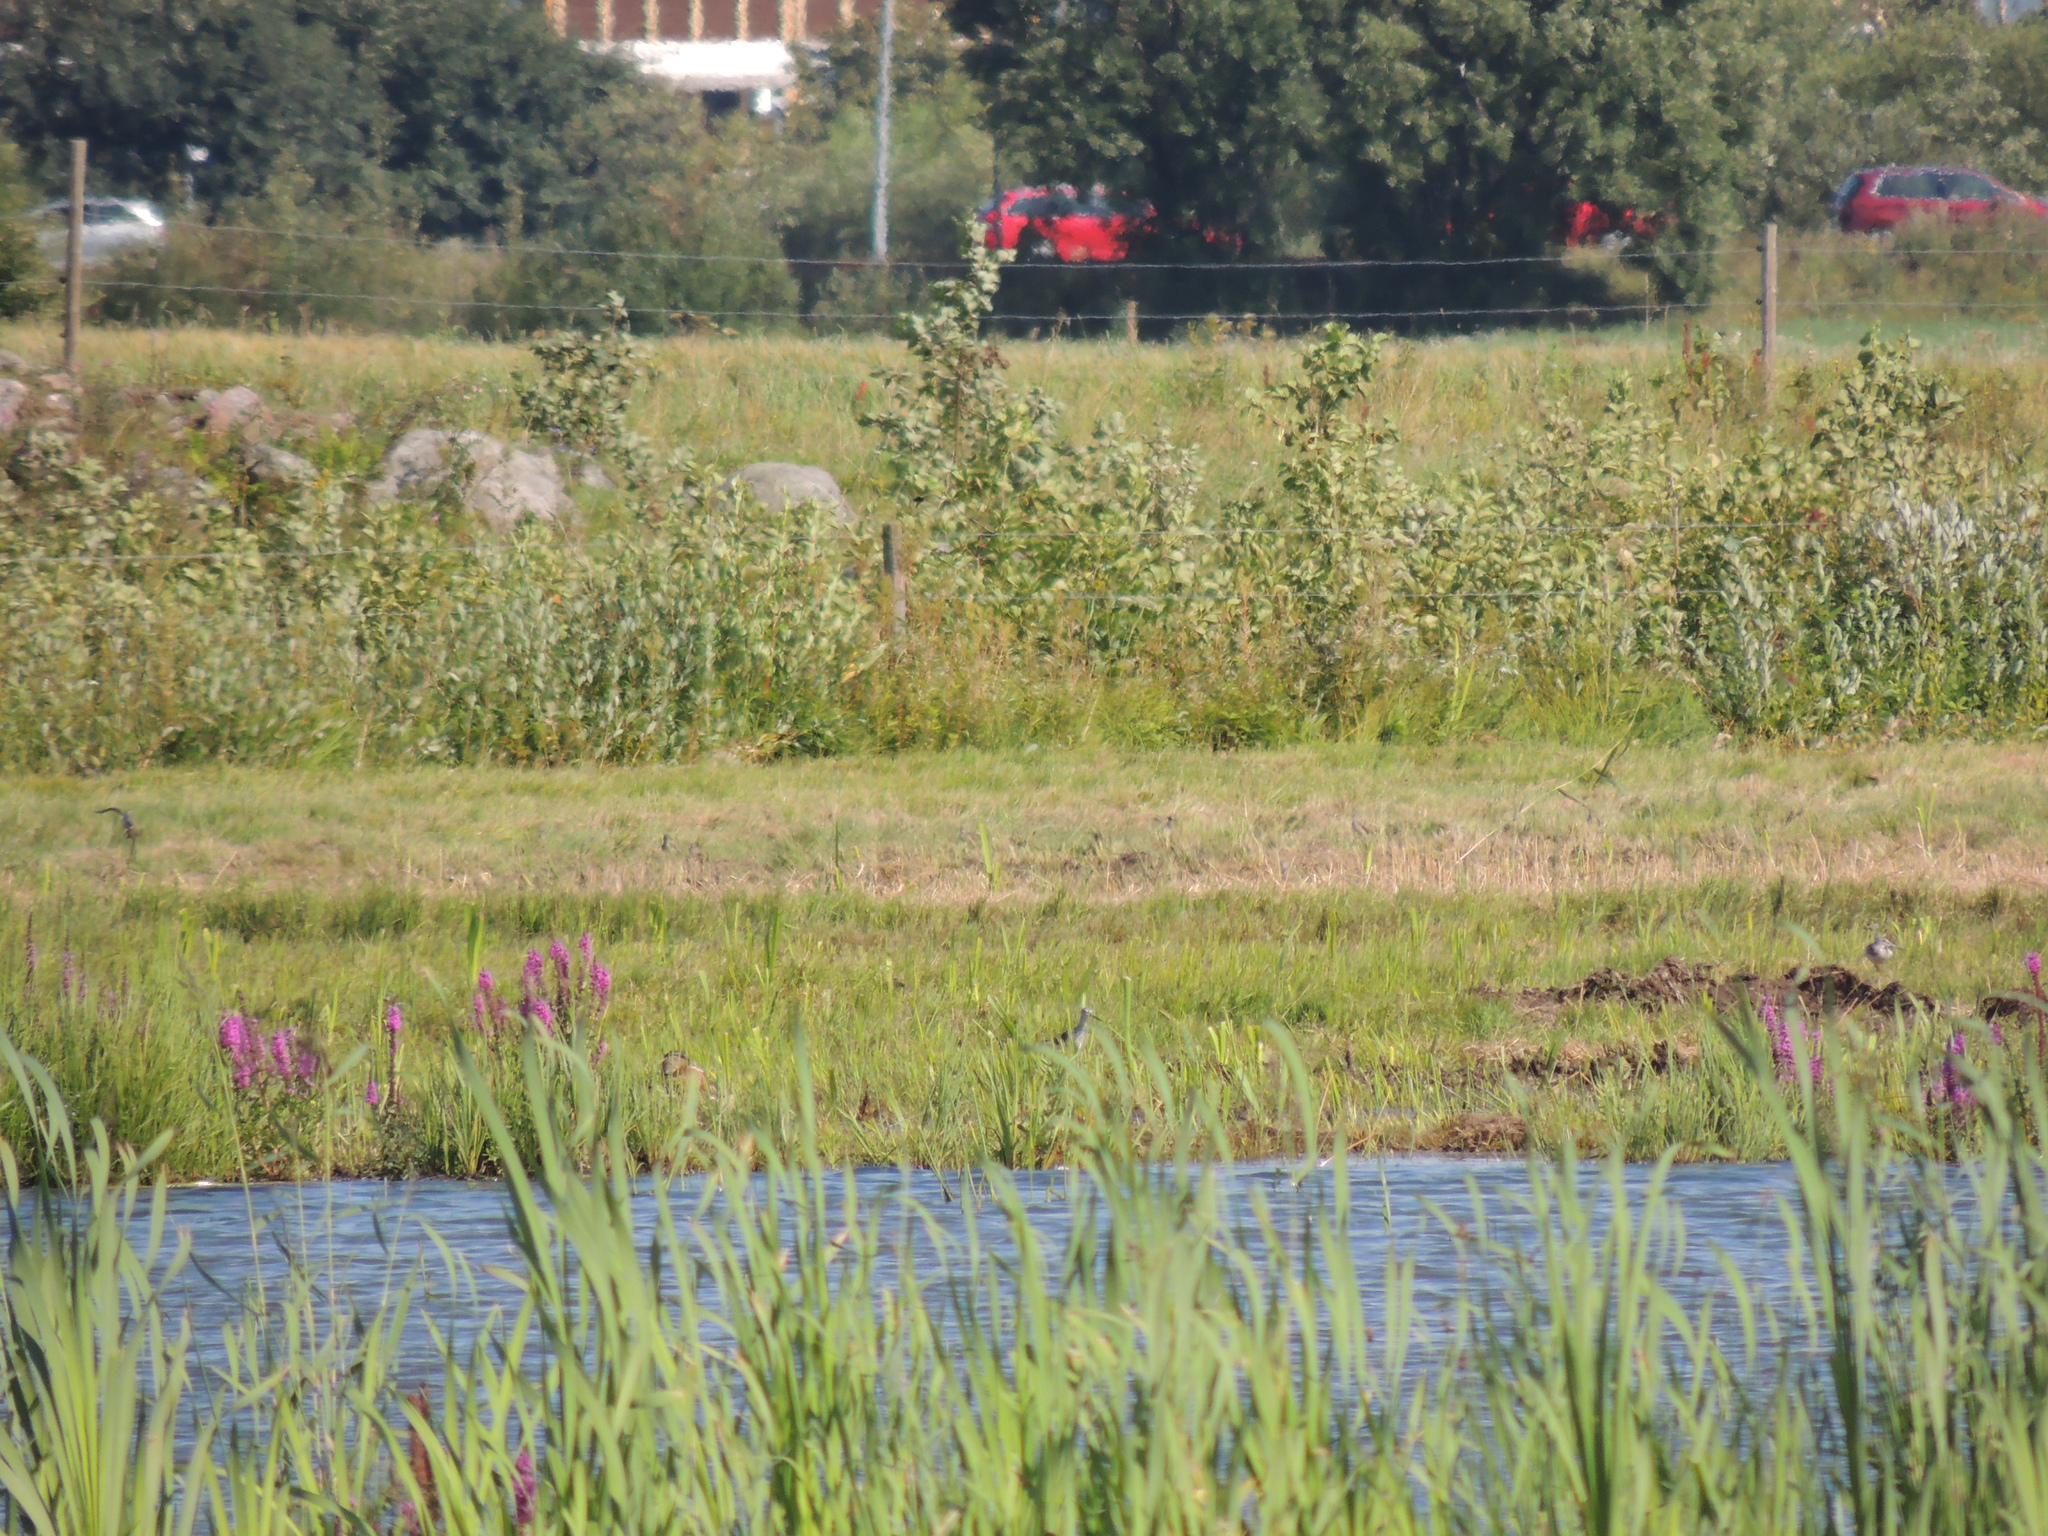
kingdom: Animalia
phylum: Chordata
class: Aves
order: Charadriiformes
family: Scolopacidae
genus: Tringa
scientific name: Tringa nebularia
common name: Common greenshank
